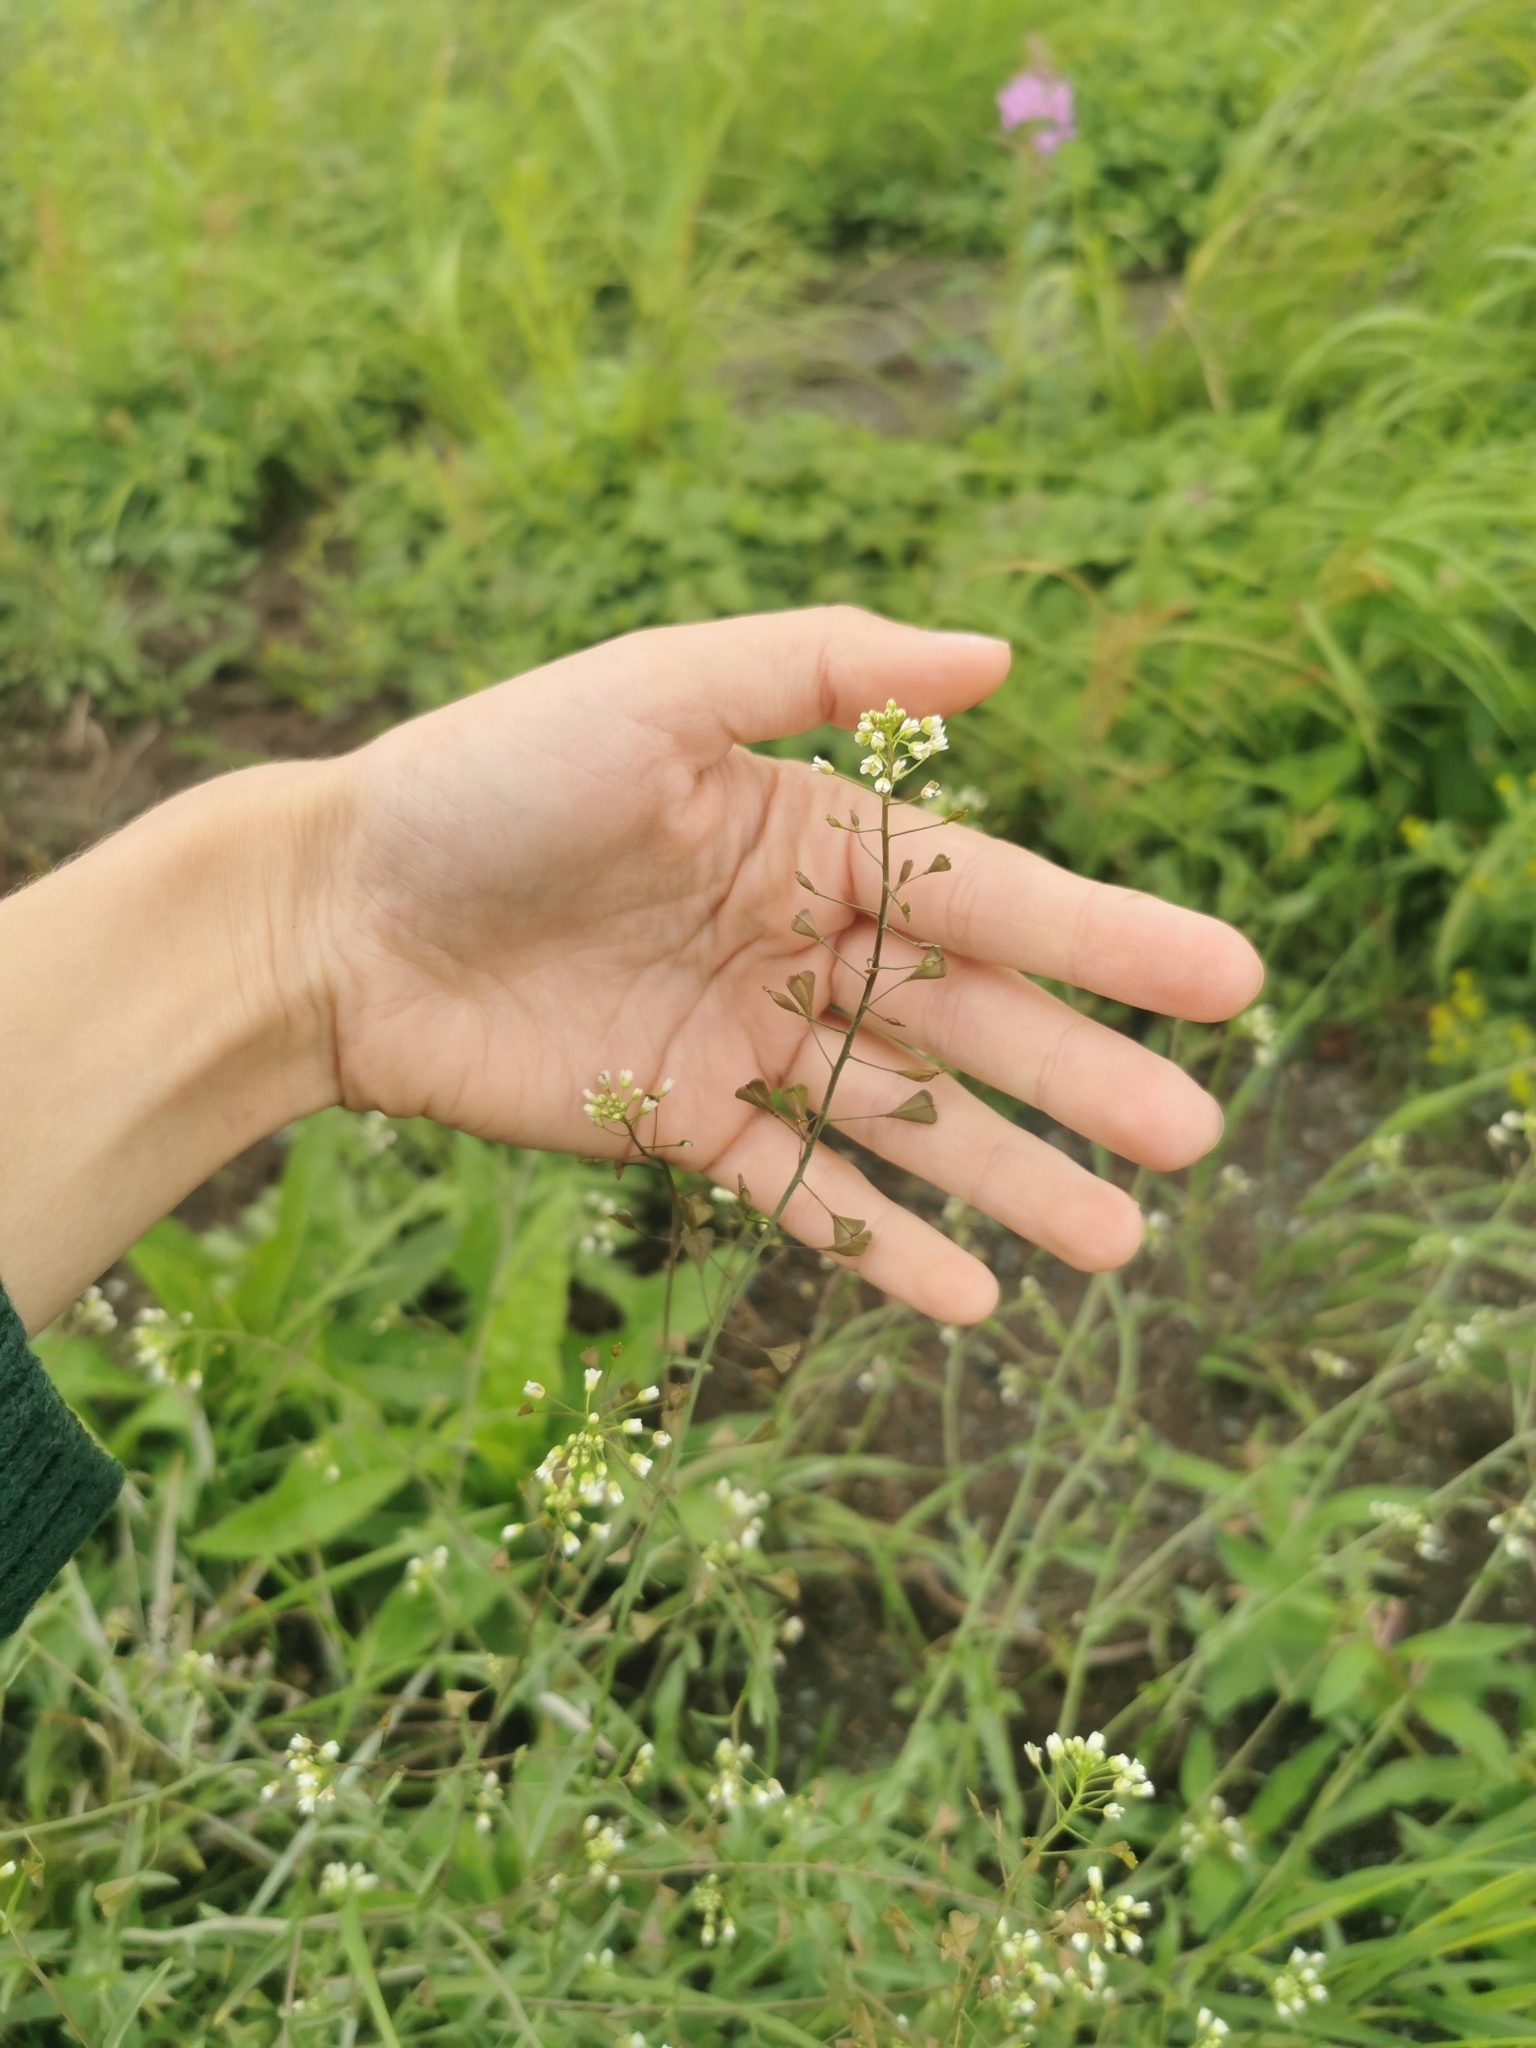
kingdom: Plantae
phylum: Tracheophyta
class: Magnoliopsida
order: Brassicales
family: Brassicaceae
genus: Capsella
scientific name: Capsella bursa-pastoris
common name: Shepherd's purse
